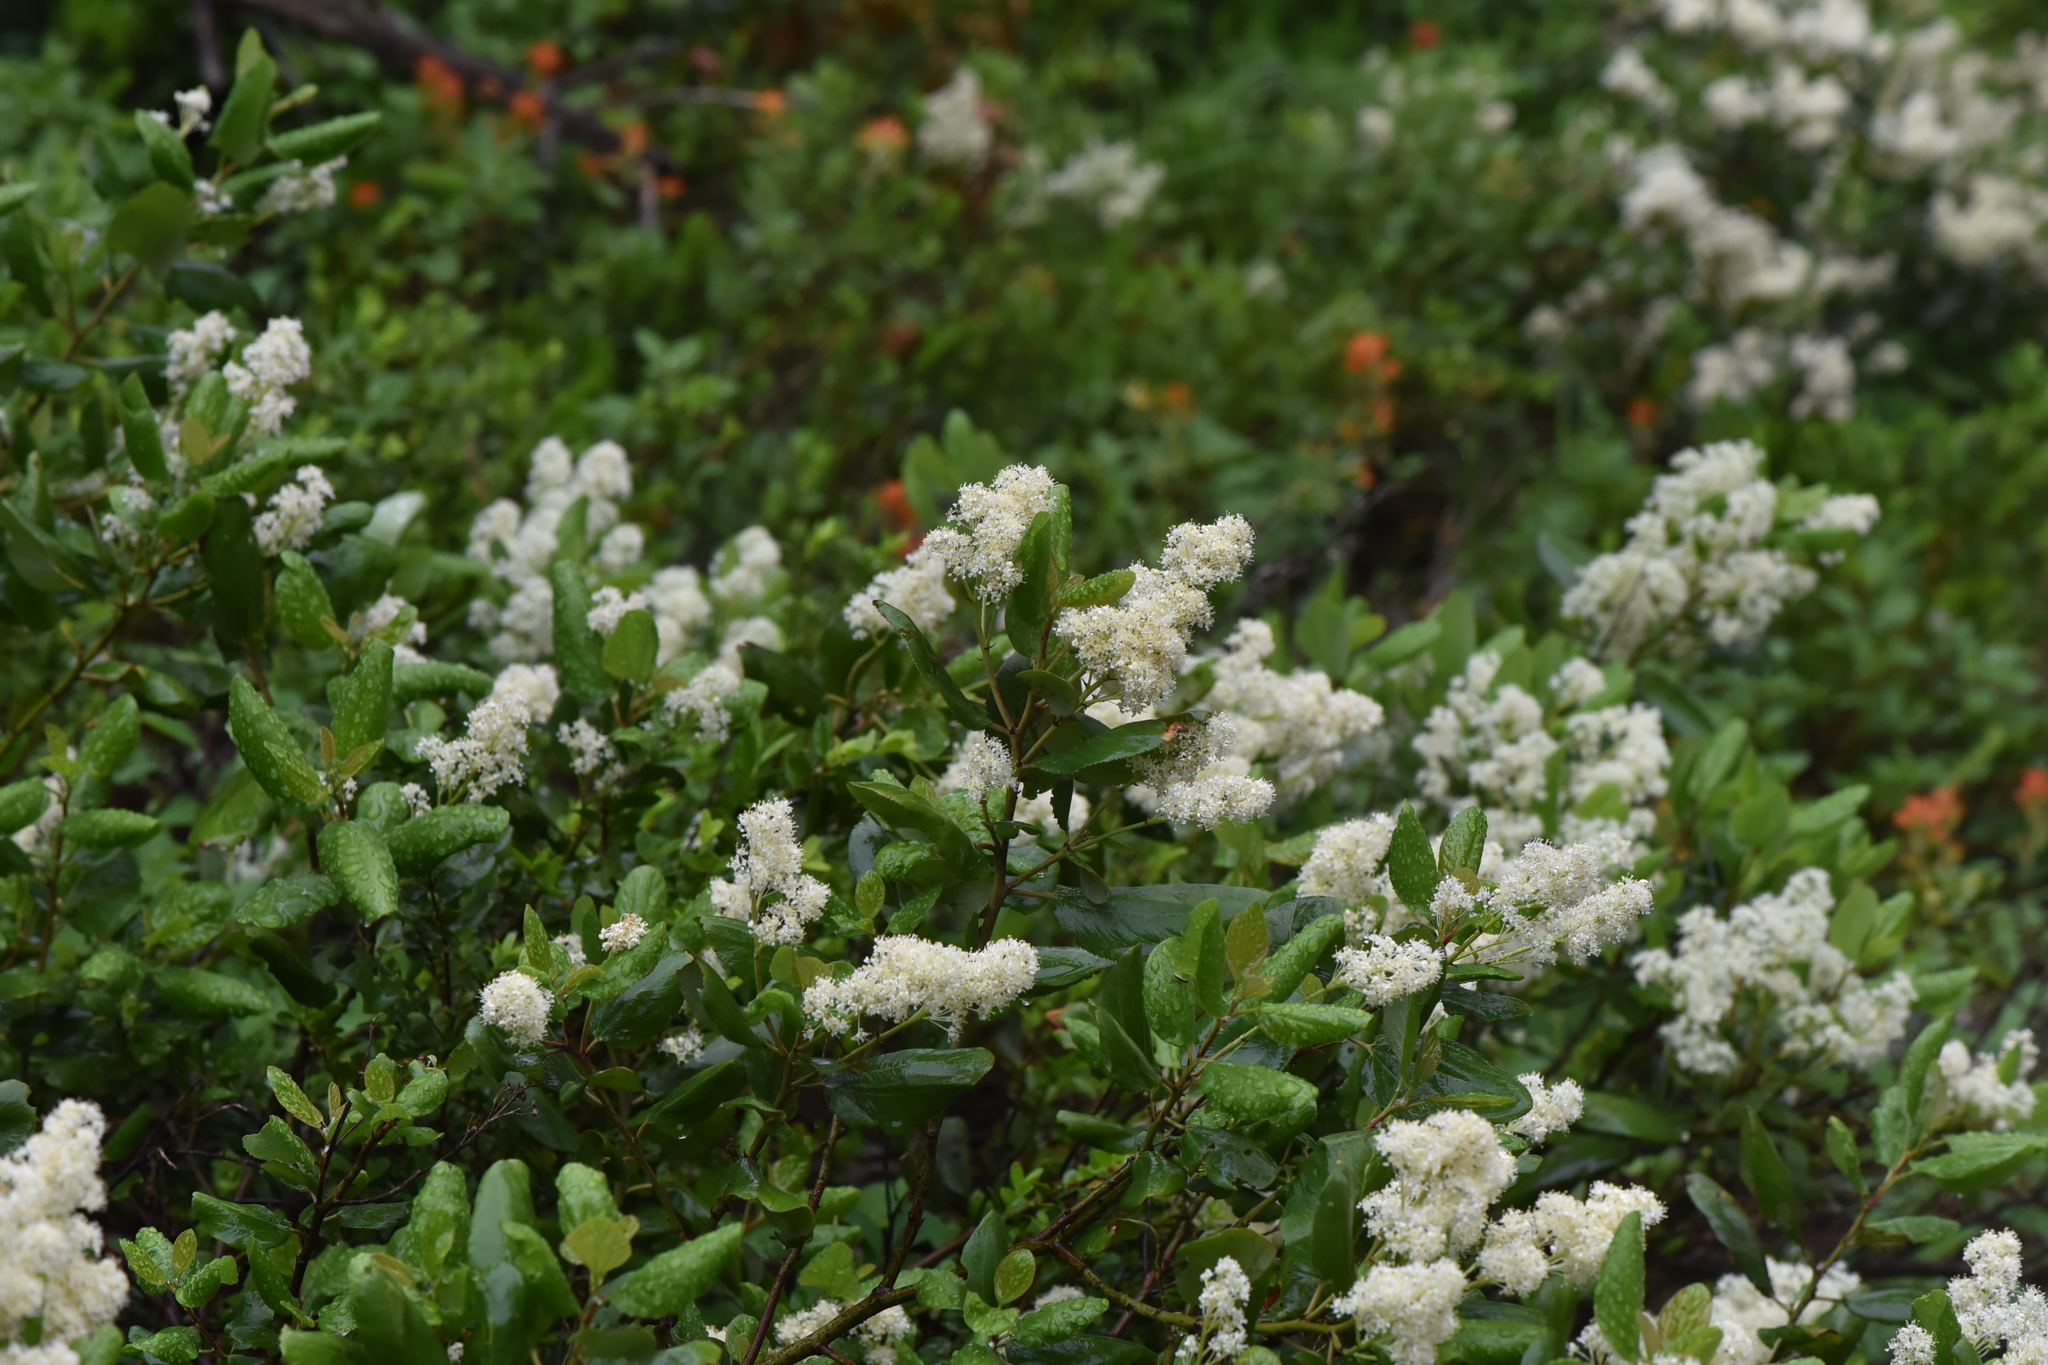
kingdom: Plantae
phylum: Tracheophyta
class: Magnoliopsida
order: Rosales
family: Rhamnaceae
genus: Ceanothus
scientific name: Ceanothus velutinus
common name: Snowbrush
